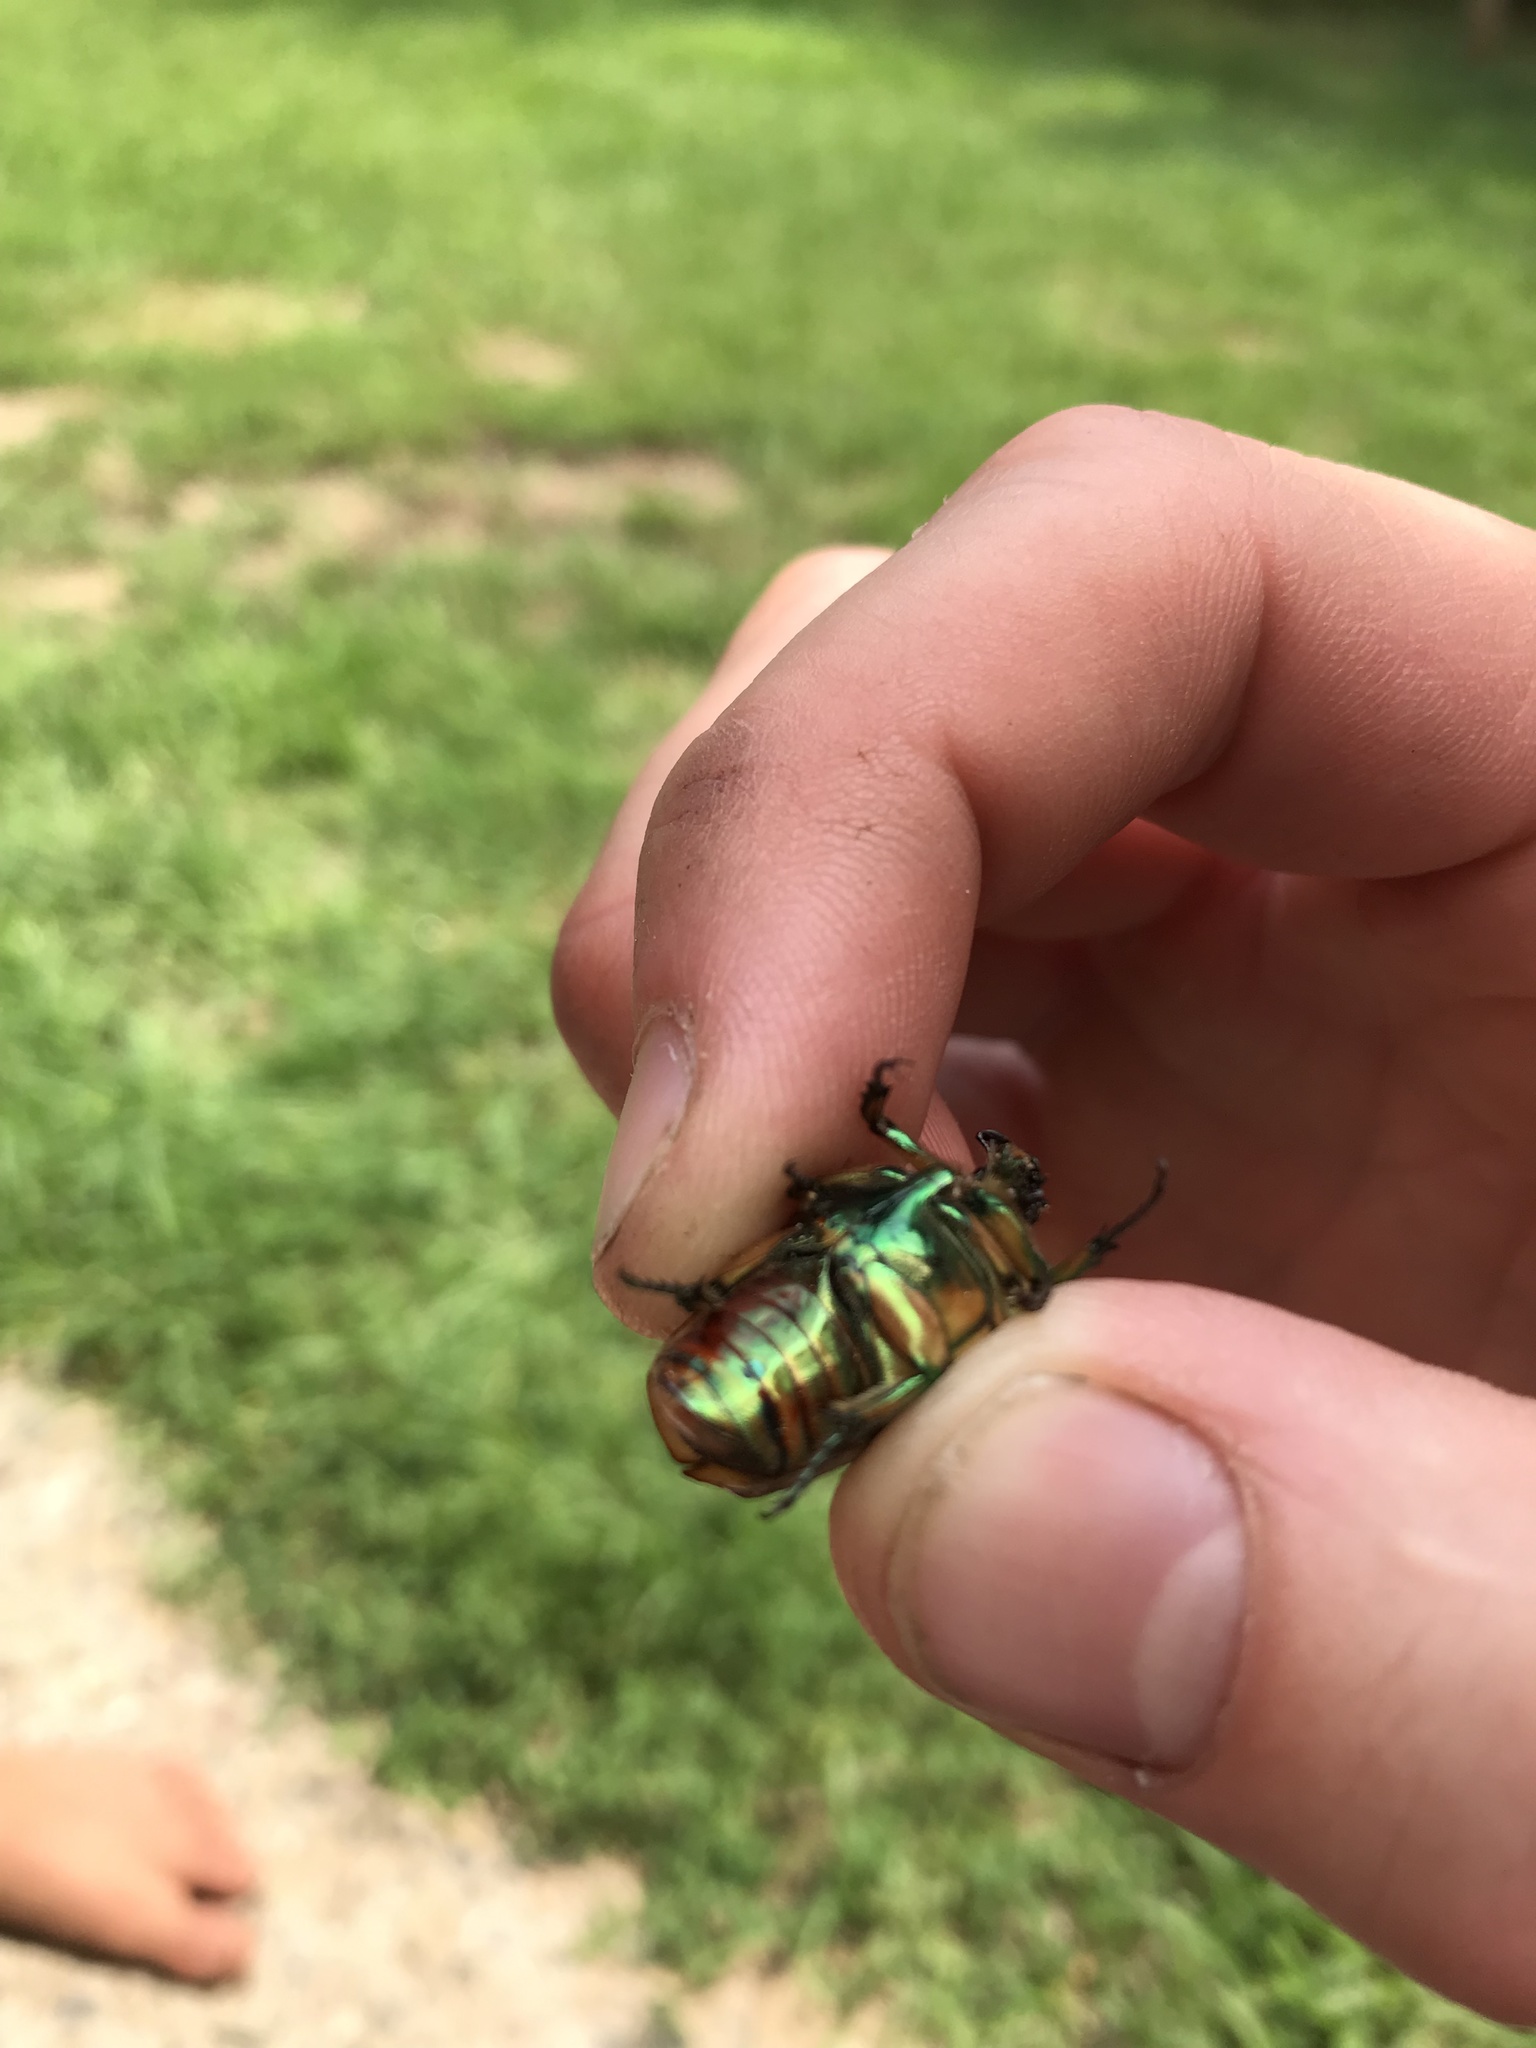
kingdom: Animalia
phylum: Arthropoda
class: Insecta
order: Coleoptera
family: Scarabaeidae
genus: Cotinis
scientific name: Cotinis nitida
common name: Common green june beetle
